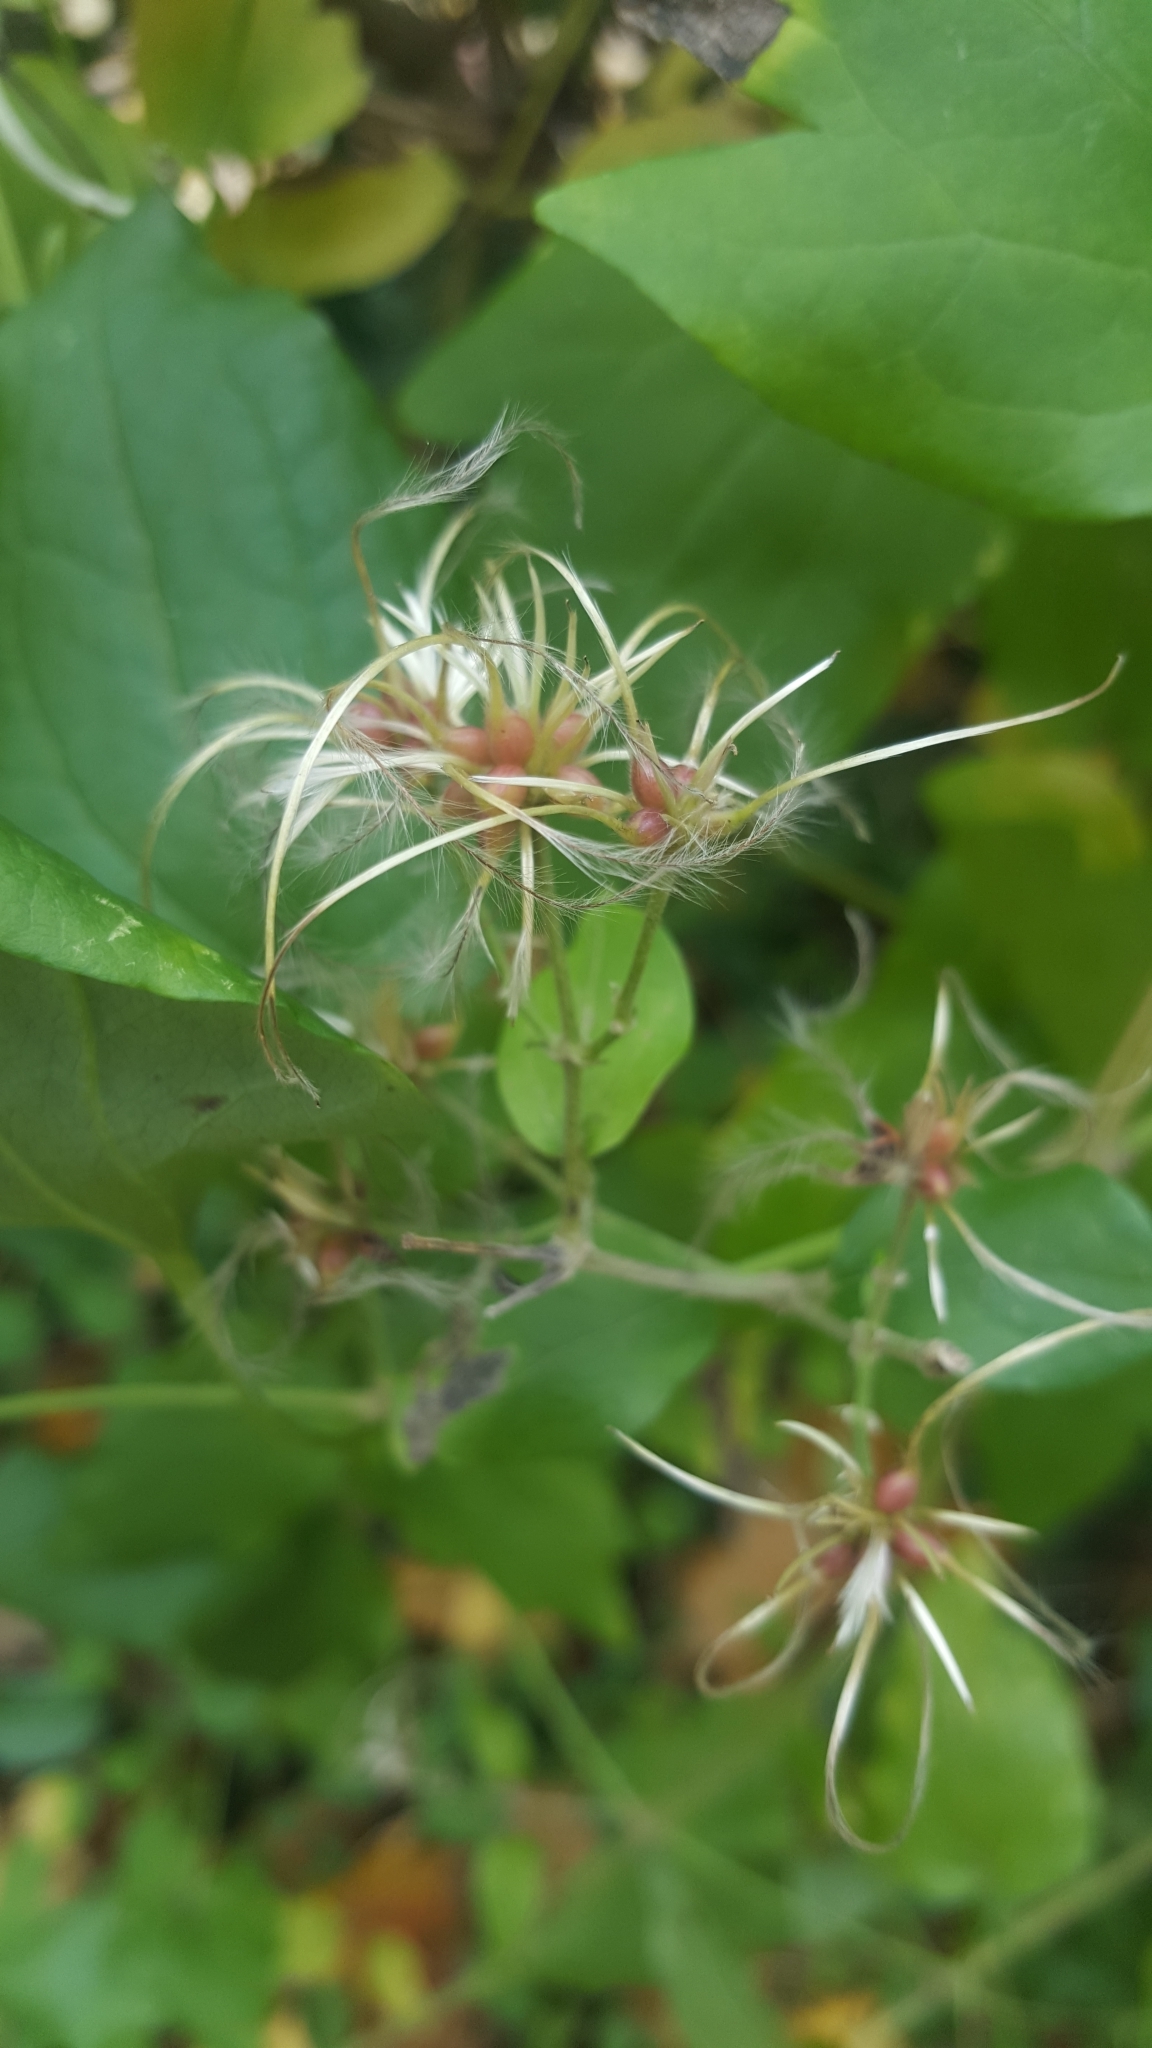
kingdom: Plantae
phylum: Tracheophyta
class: Magnoliopsida
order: Ranunculales
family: Ranunculaceae
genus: Clematis
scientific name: Clematis vitalba
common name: Evergreen clematis
